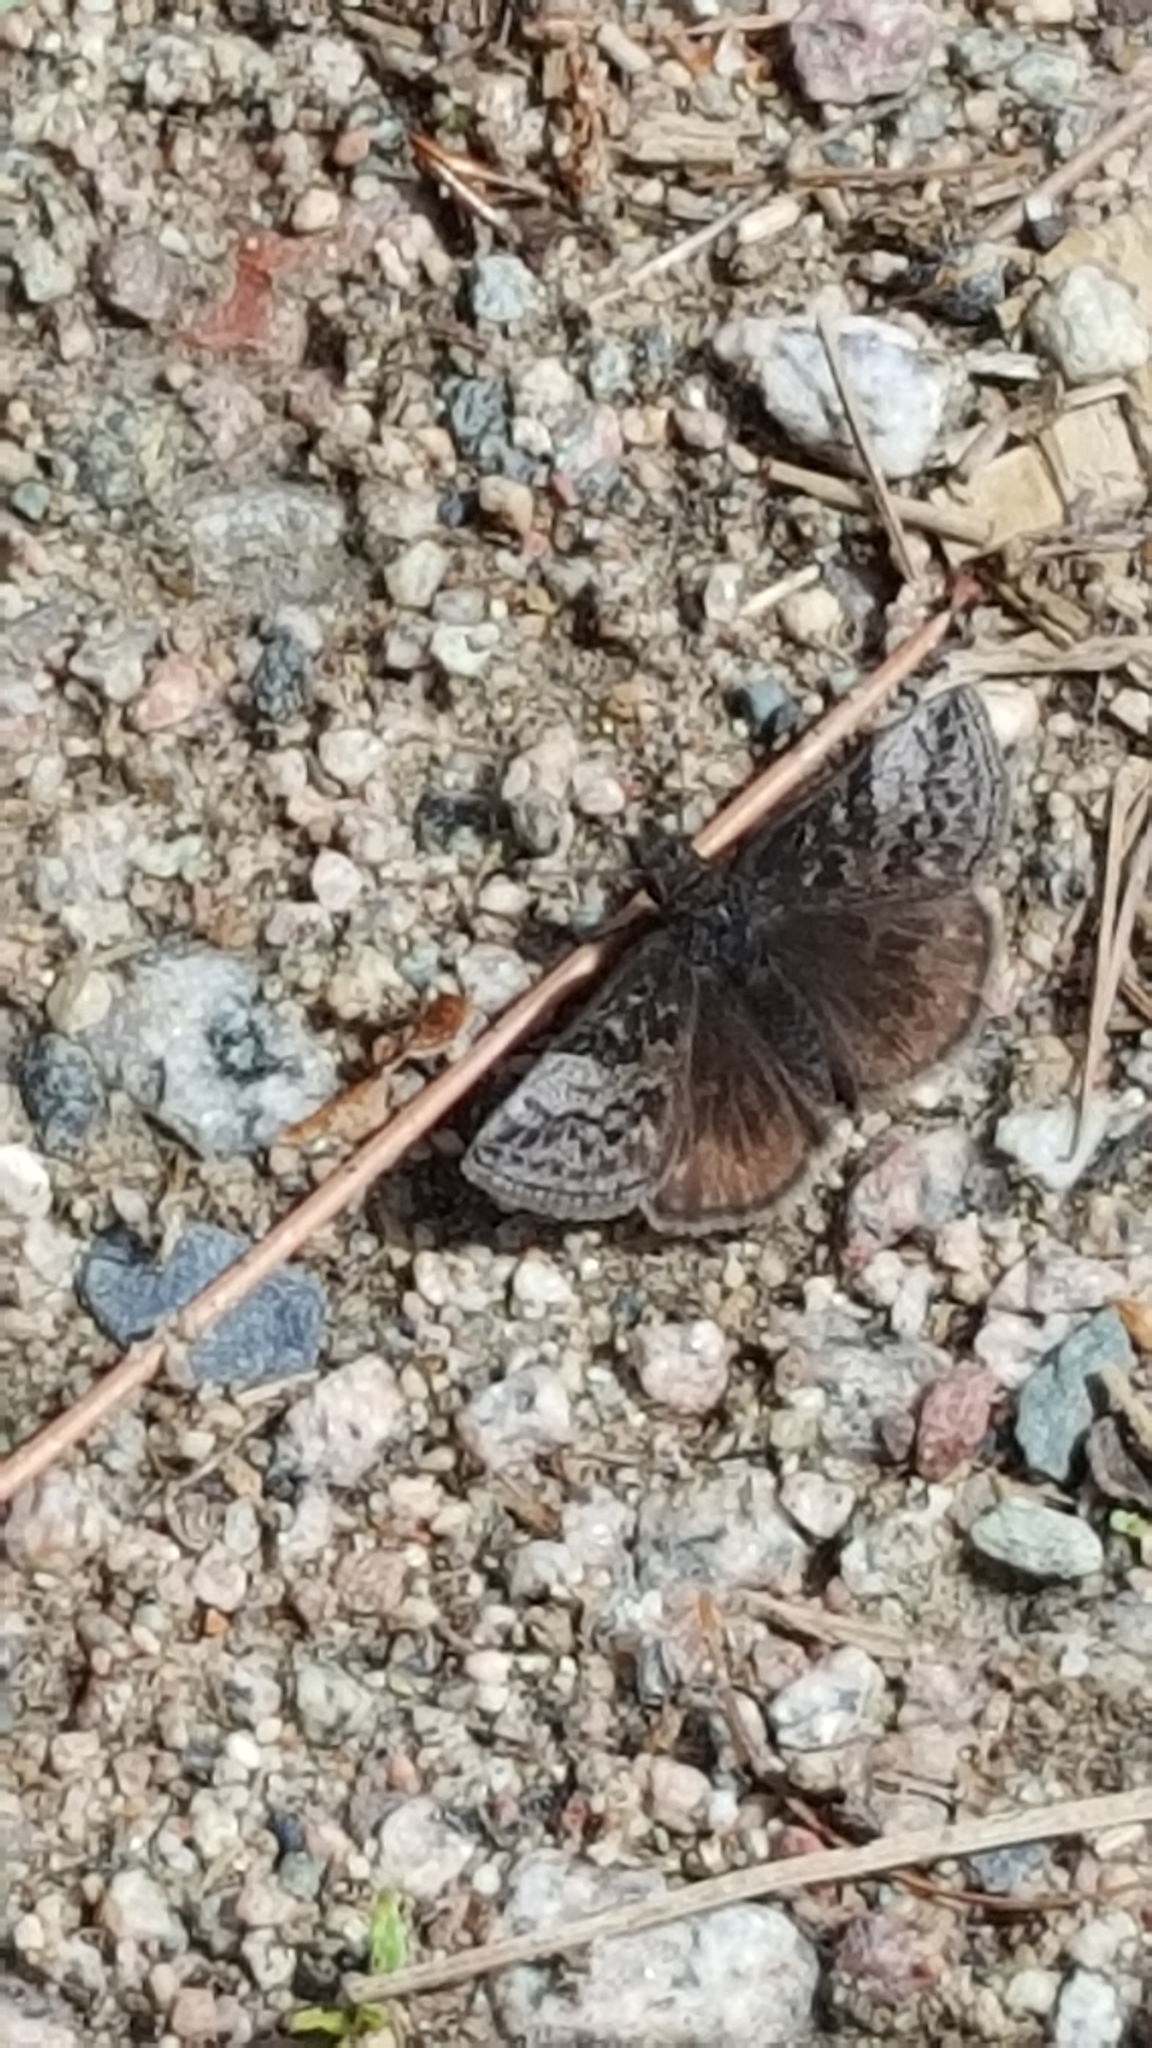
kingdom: Animalia
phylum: Arthropoda
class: Insecta
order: Lepidoptera
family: Hesperiidae
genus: Erynnis
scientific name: Erynnis icelus
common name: Dreamy duskywing
